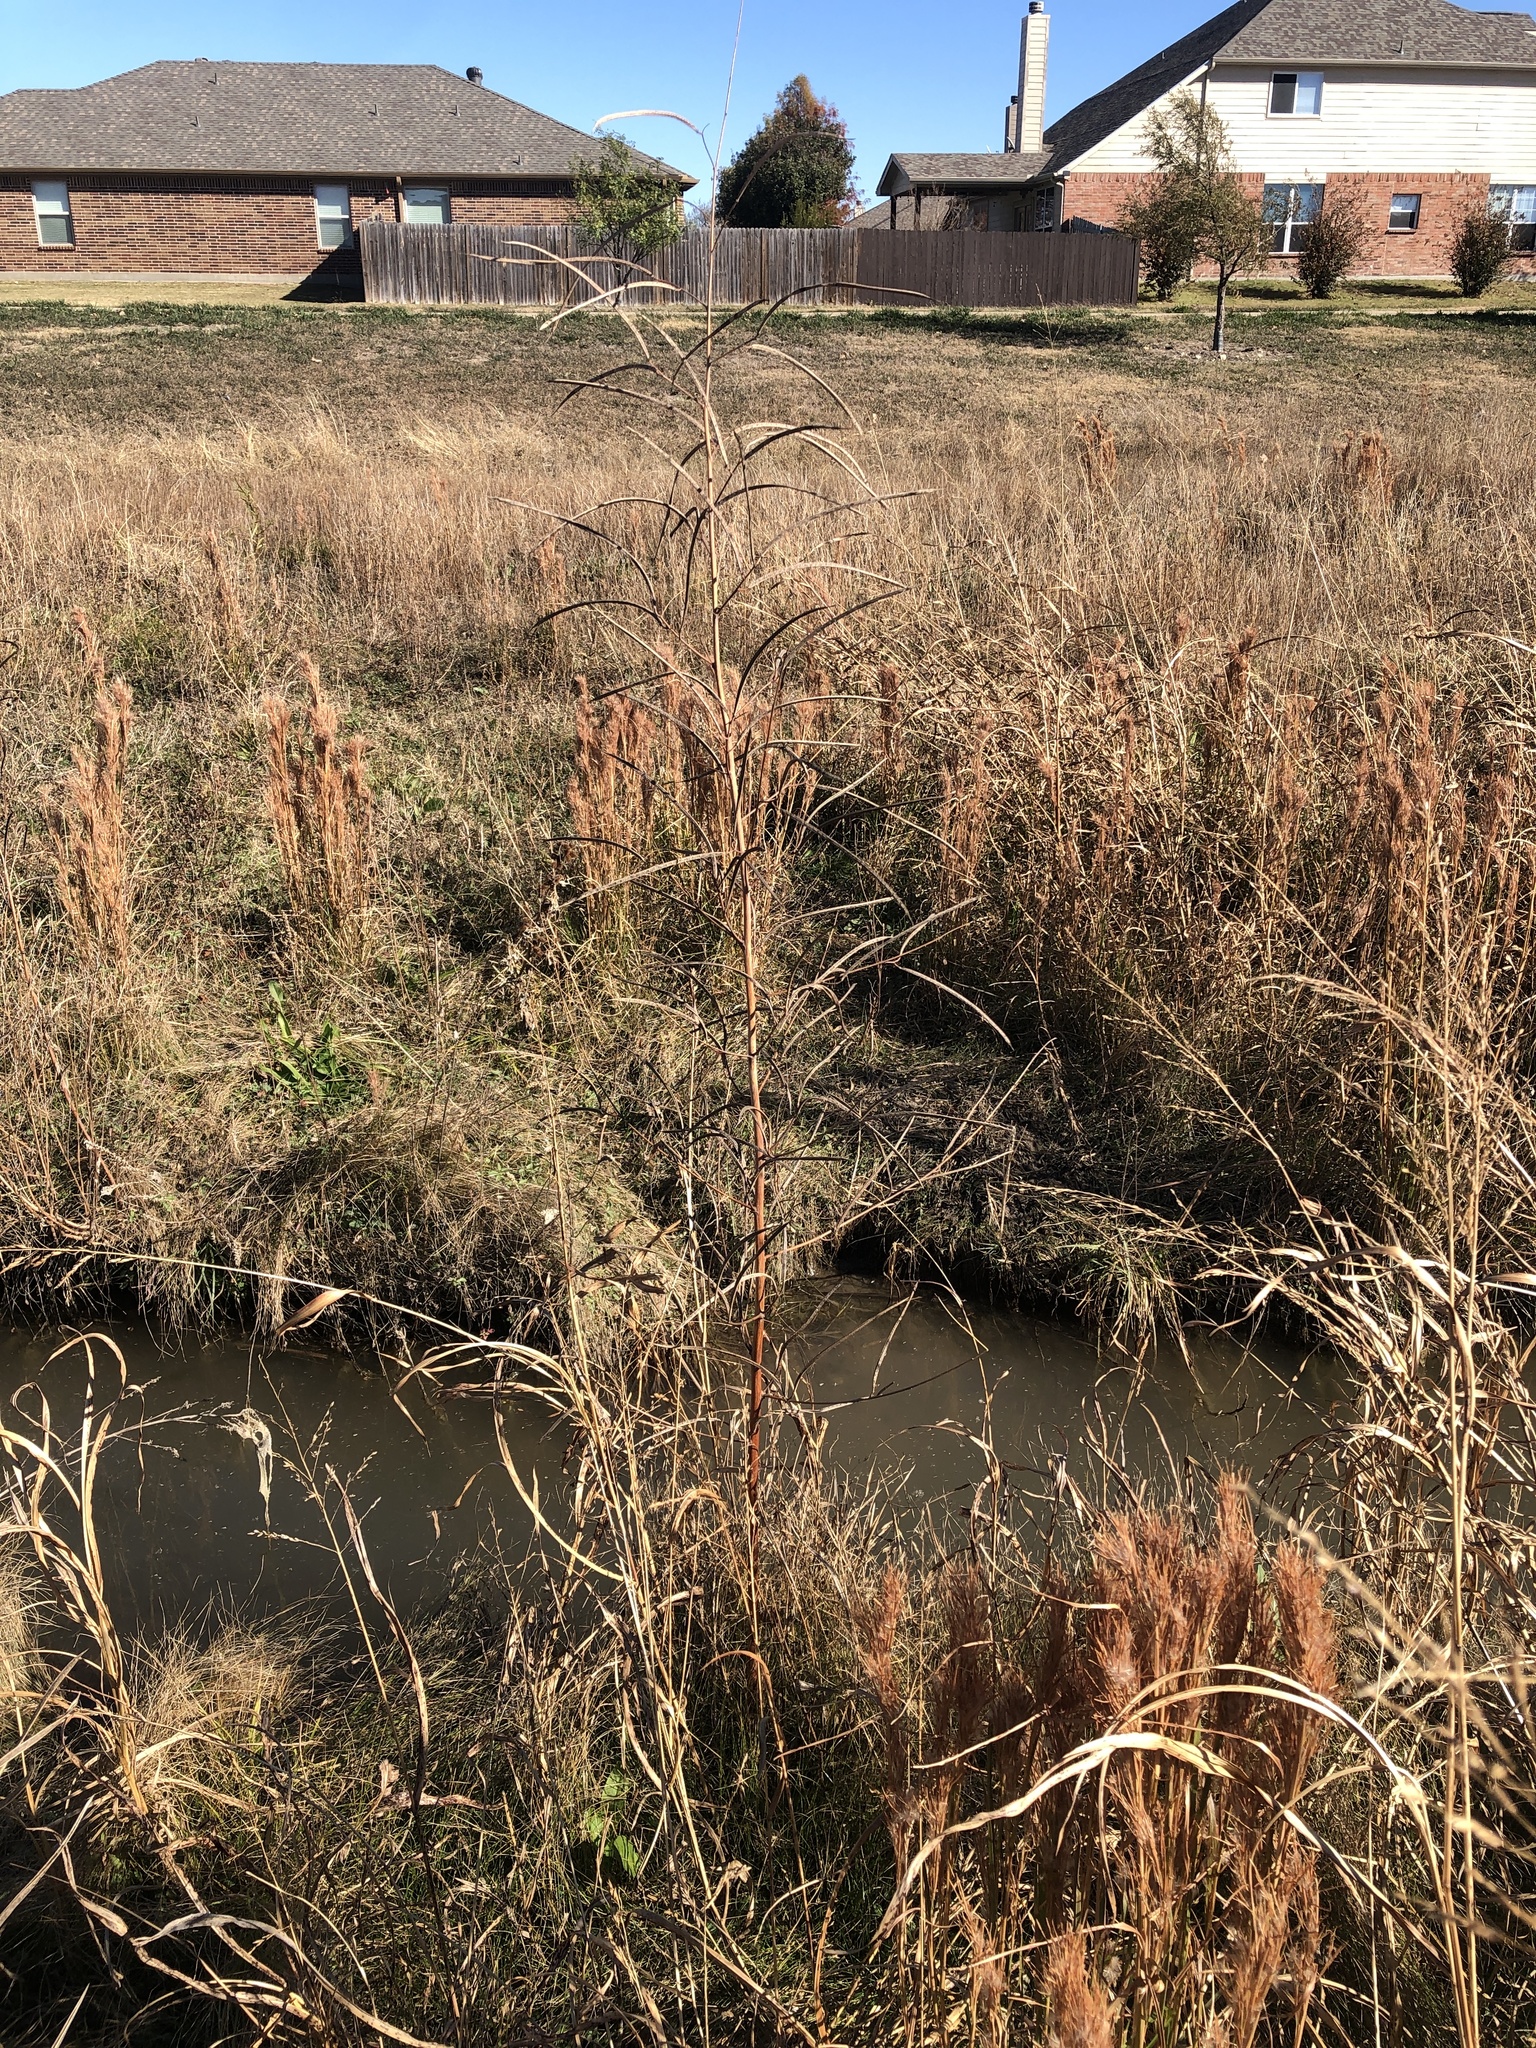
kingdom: Plantae
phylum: Tracheophyta
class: Magnoliopsida
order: Fabales
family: Fabaceae
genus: Sesbania
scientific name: Sesbania herbacea
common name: Bigpod sesbania
